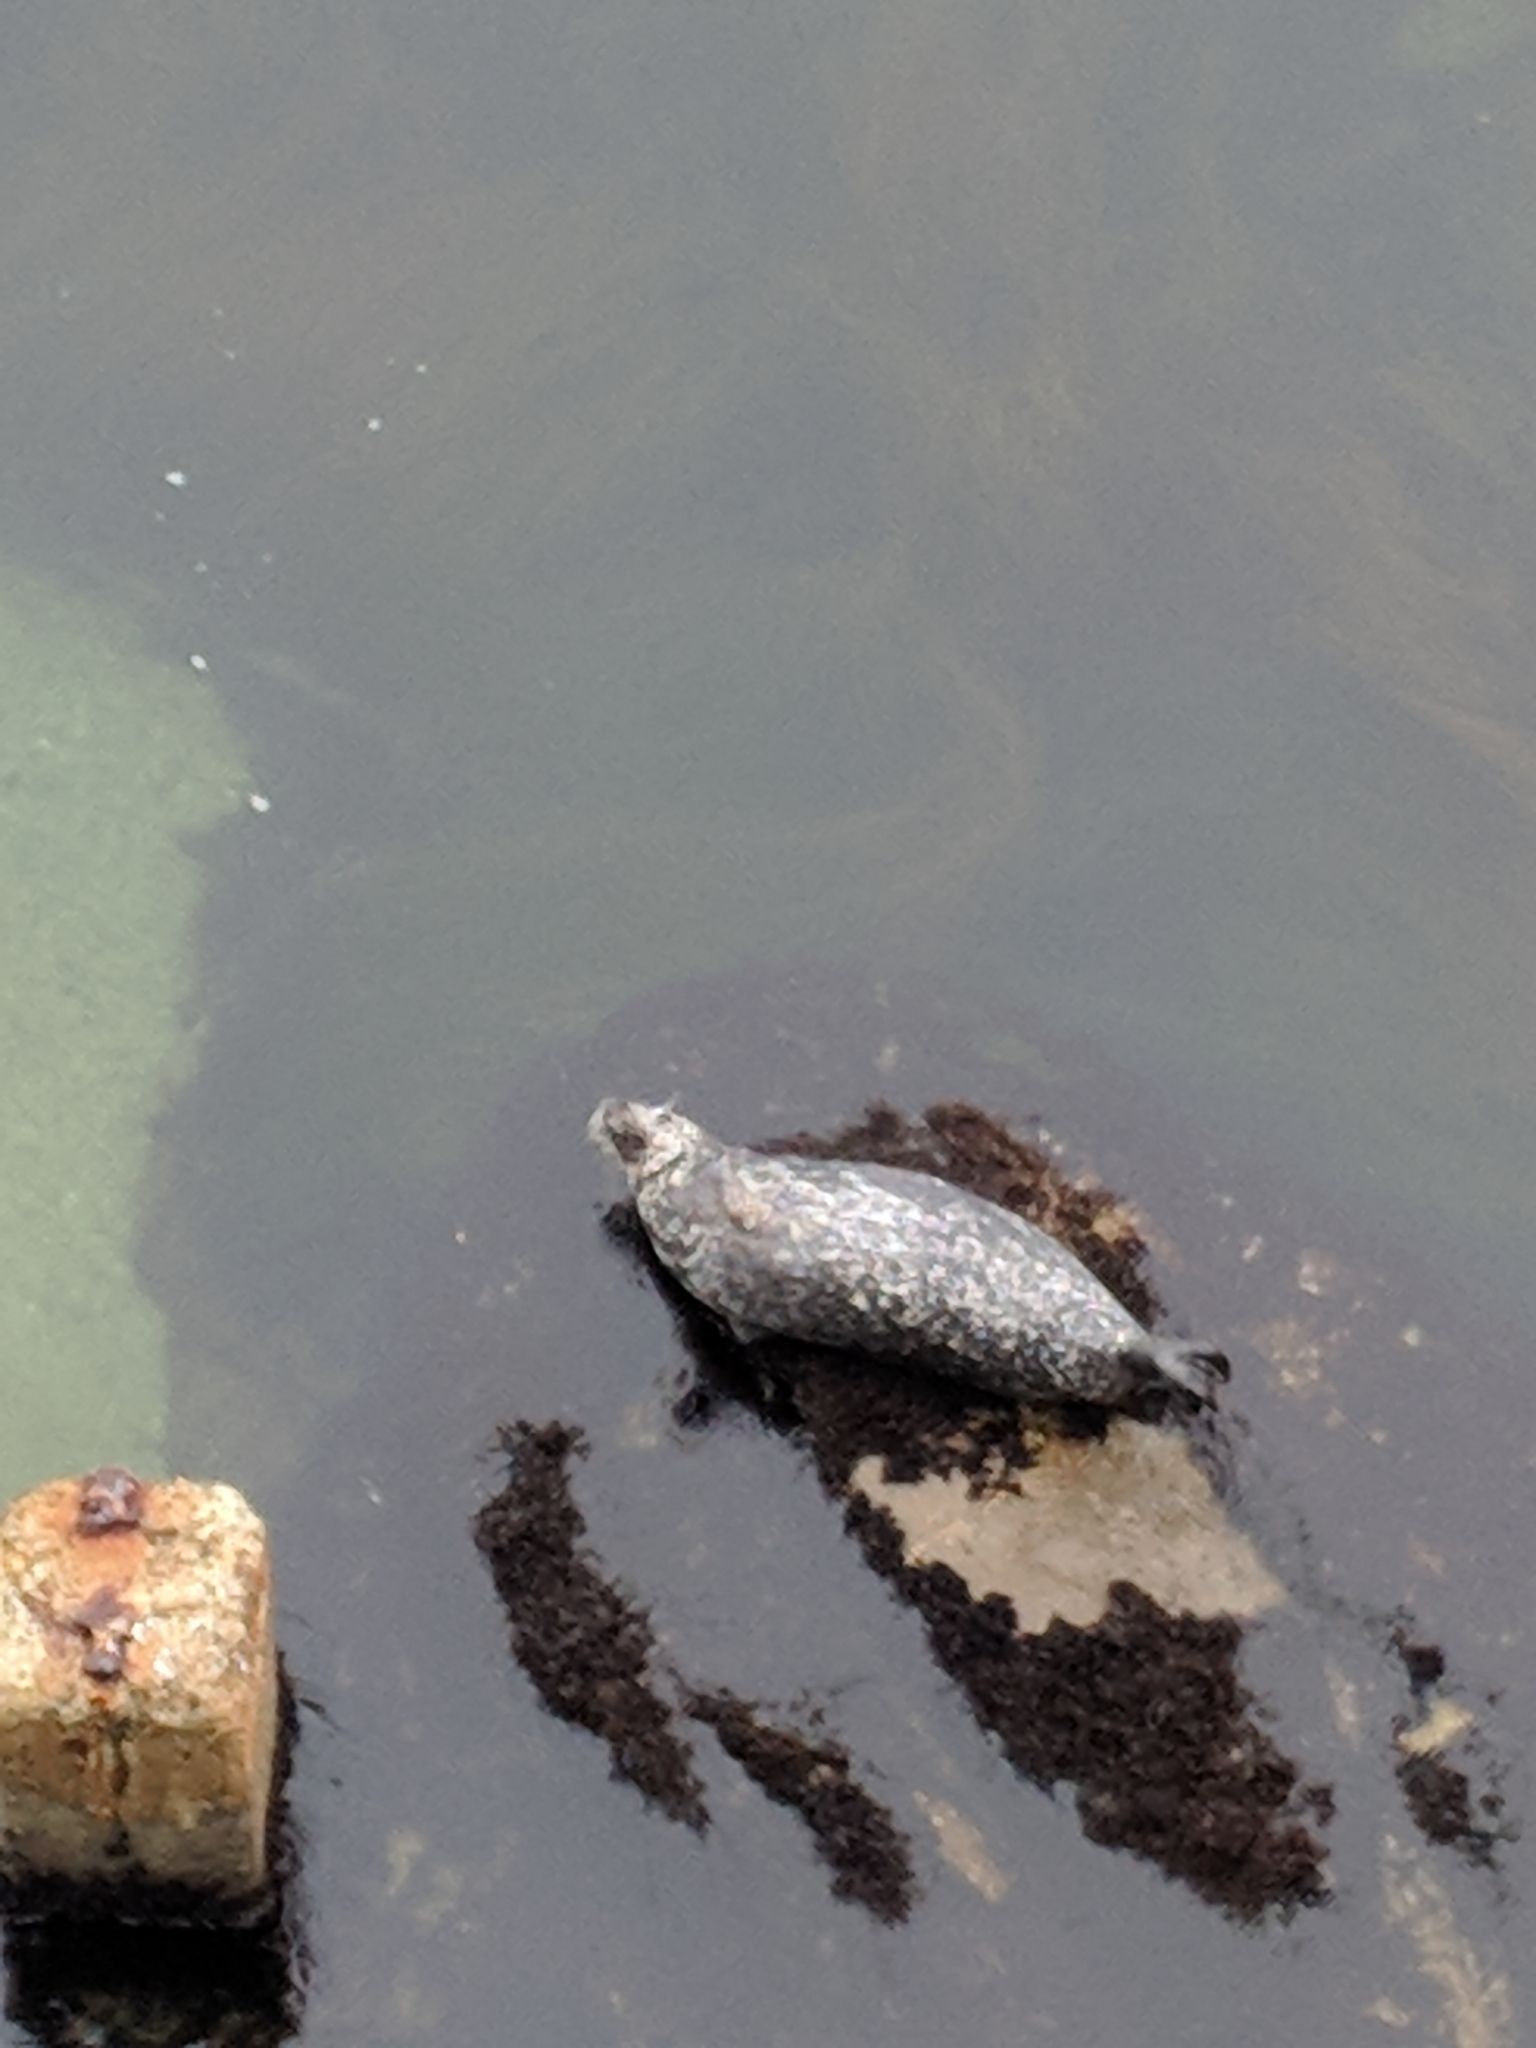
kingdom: Animalia
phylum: Chordata
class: Mammalia
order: Carnivora
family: Phocidae
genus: Phoca
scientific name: Phoca vitulina
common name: Harbor seal
